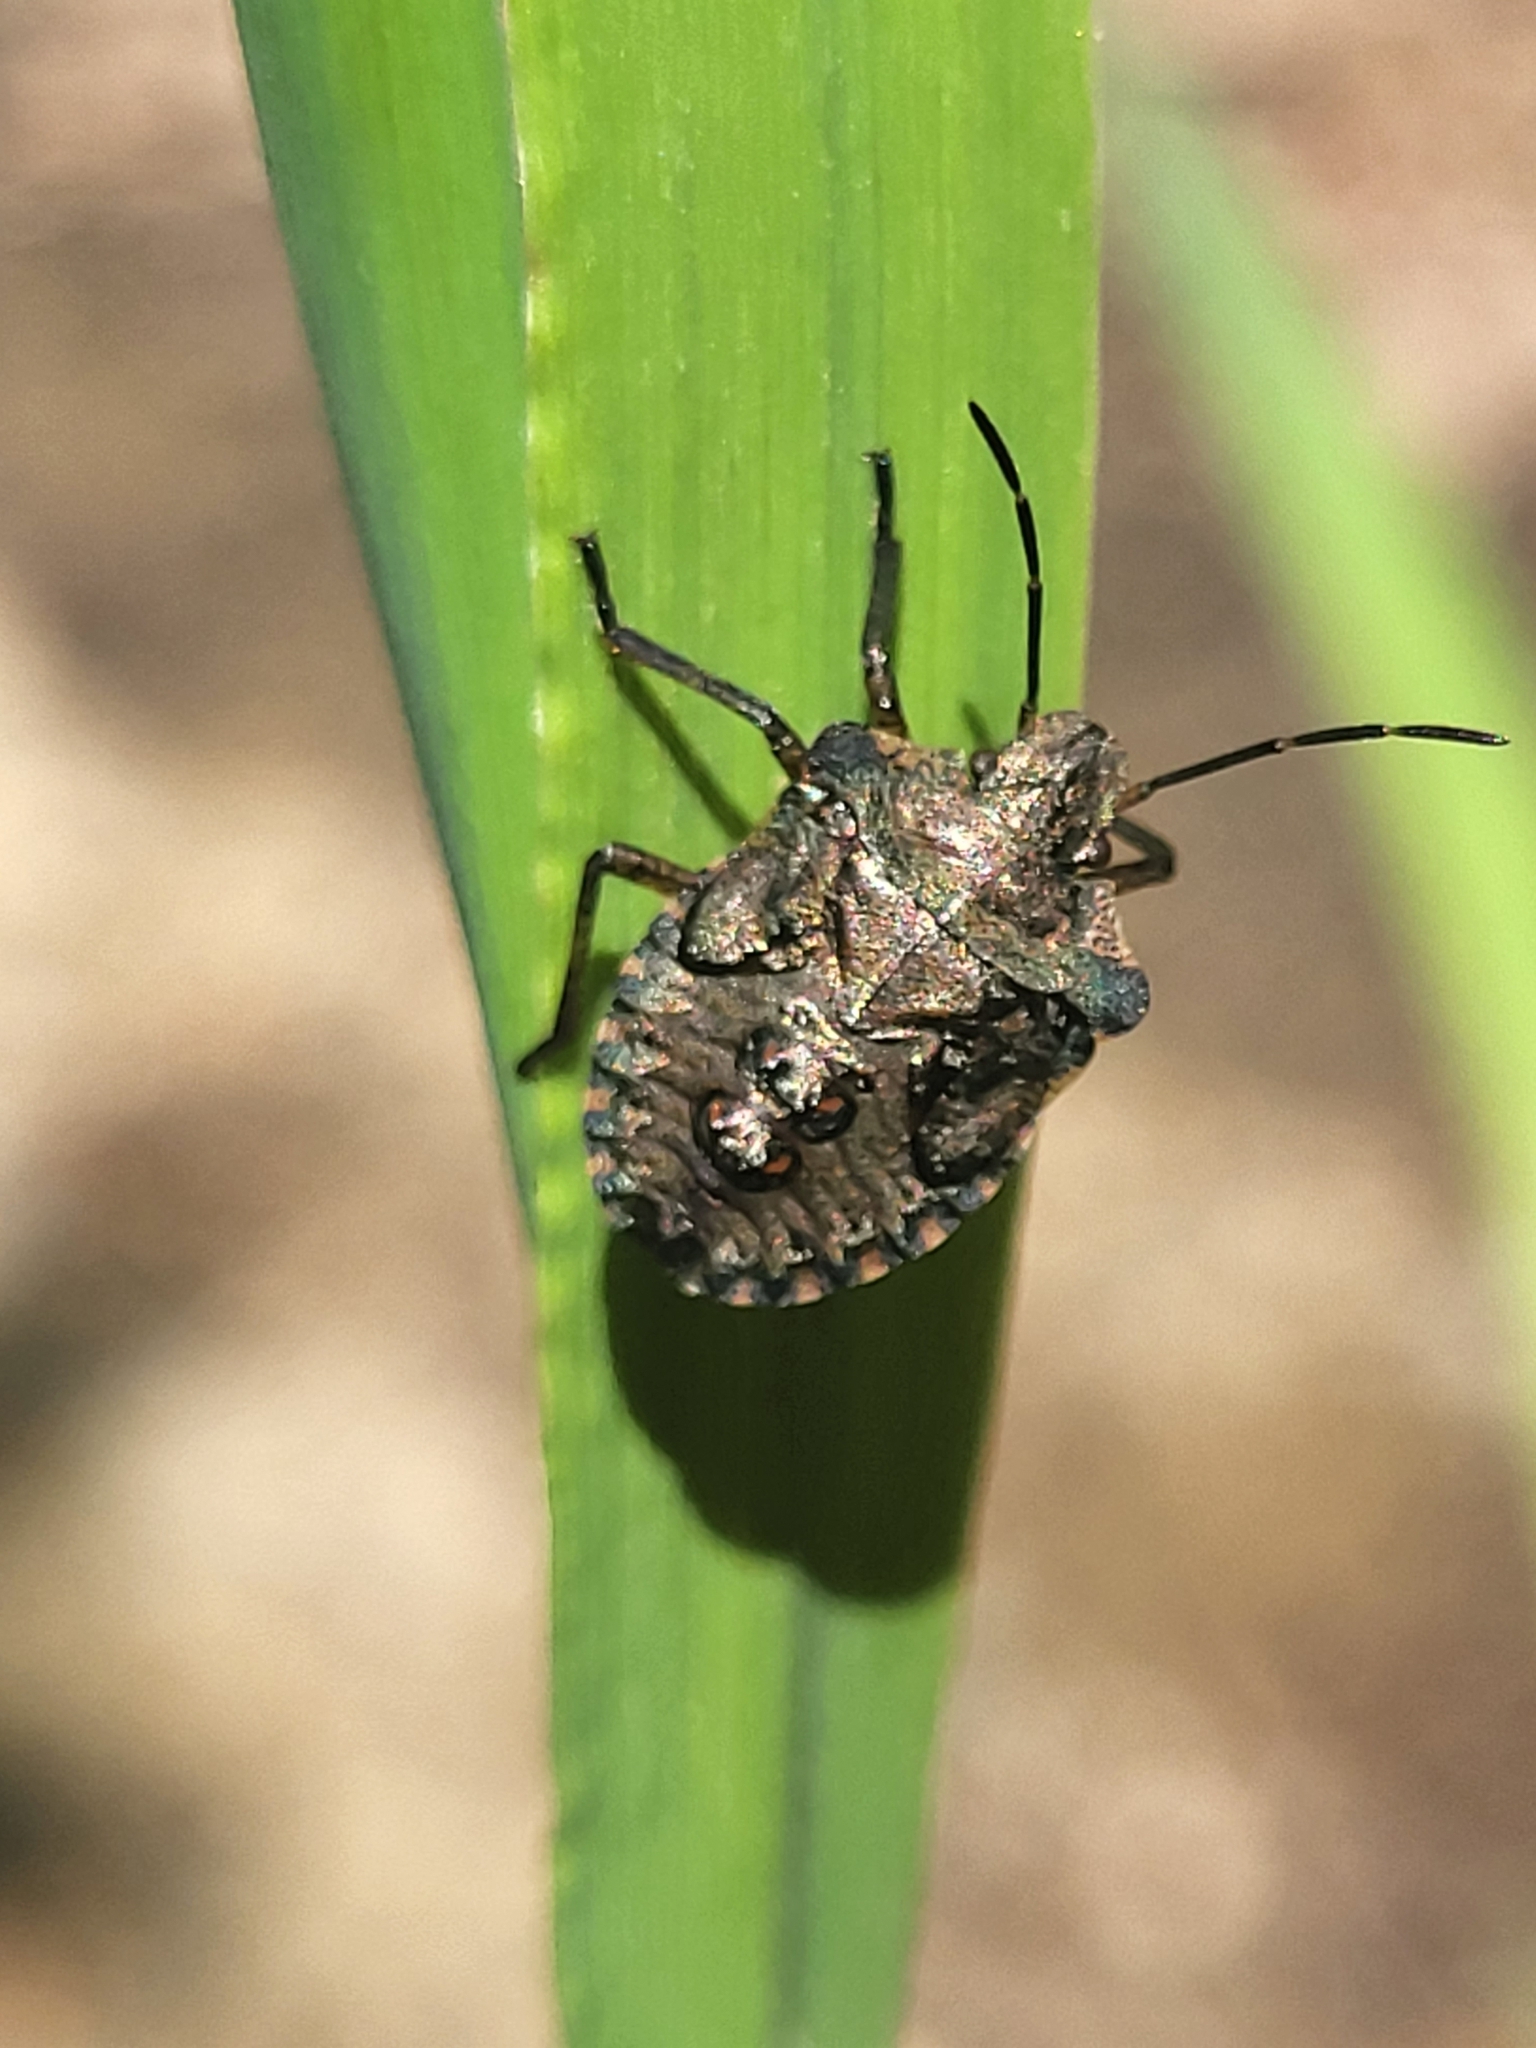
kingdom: Animalia
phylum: Arthropoda
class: Insecta
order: Hemiptera
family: Pentatomidae
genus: Pentatoma
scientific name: Pentatoma rufipes
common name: Forest bug
